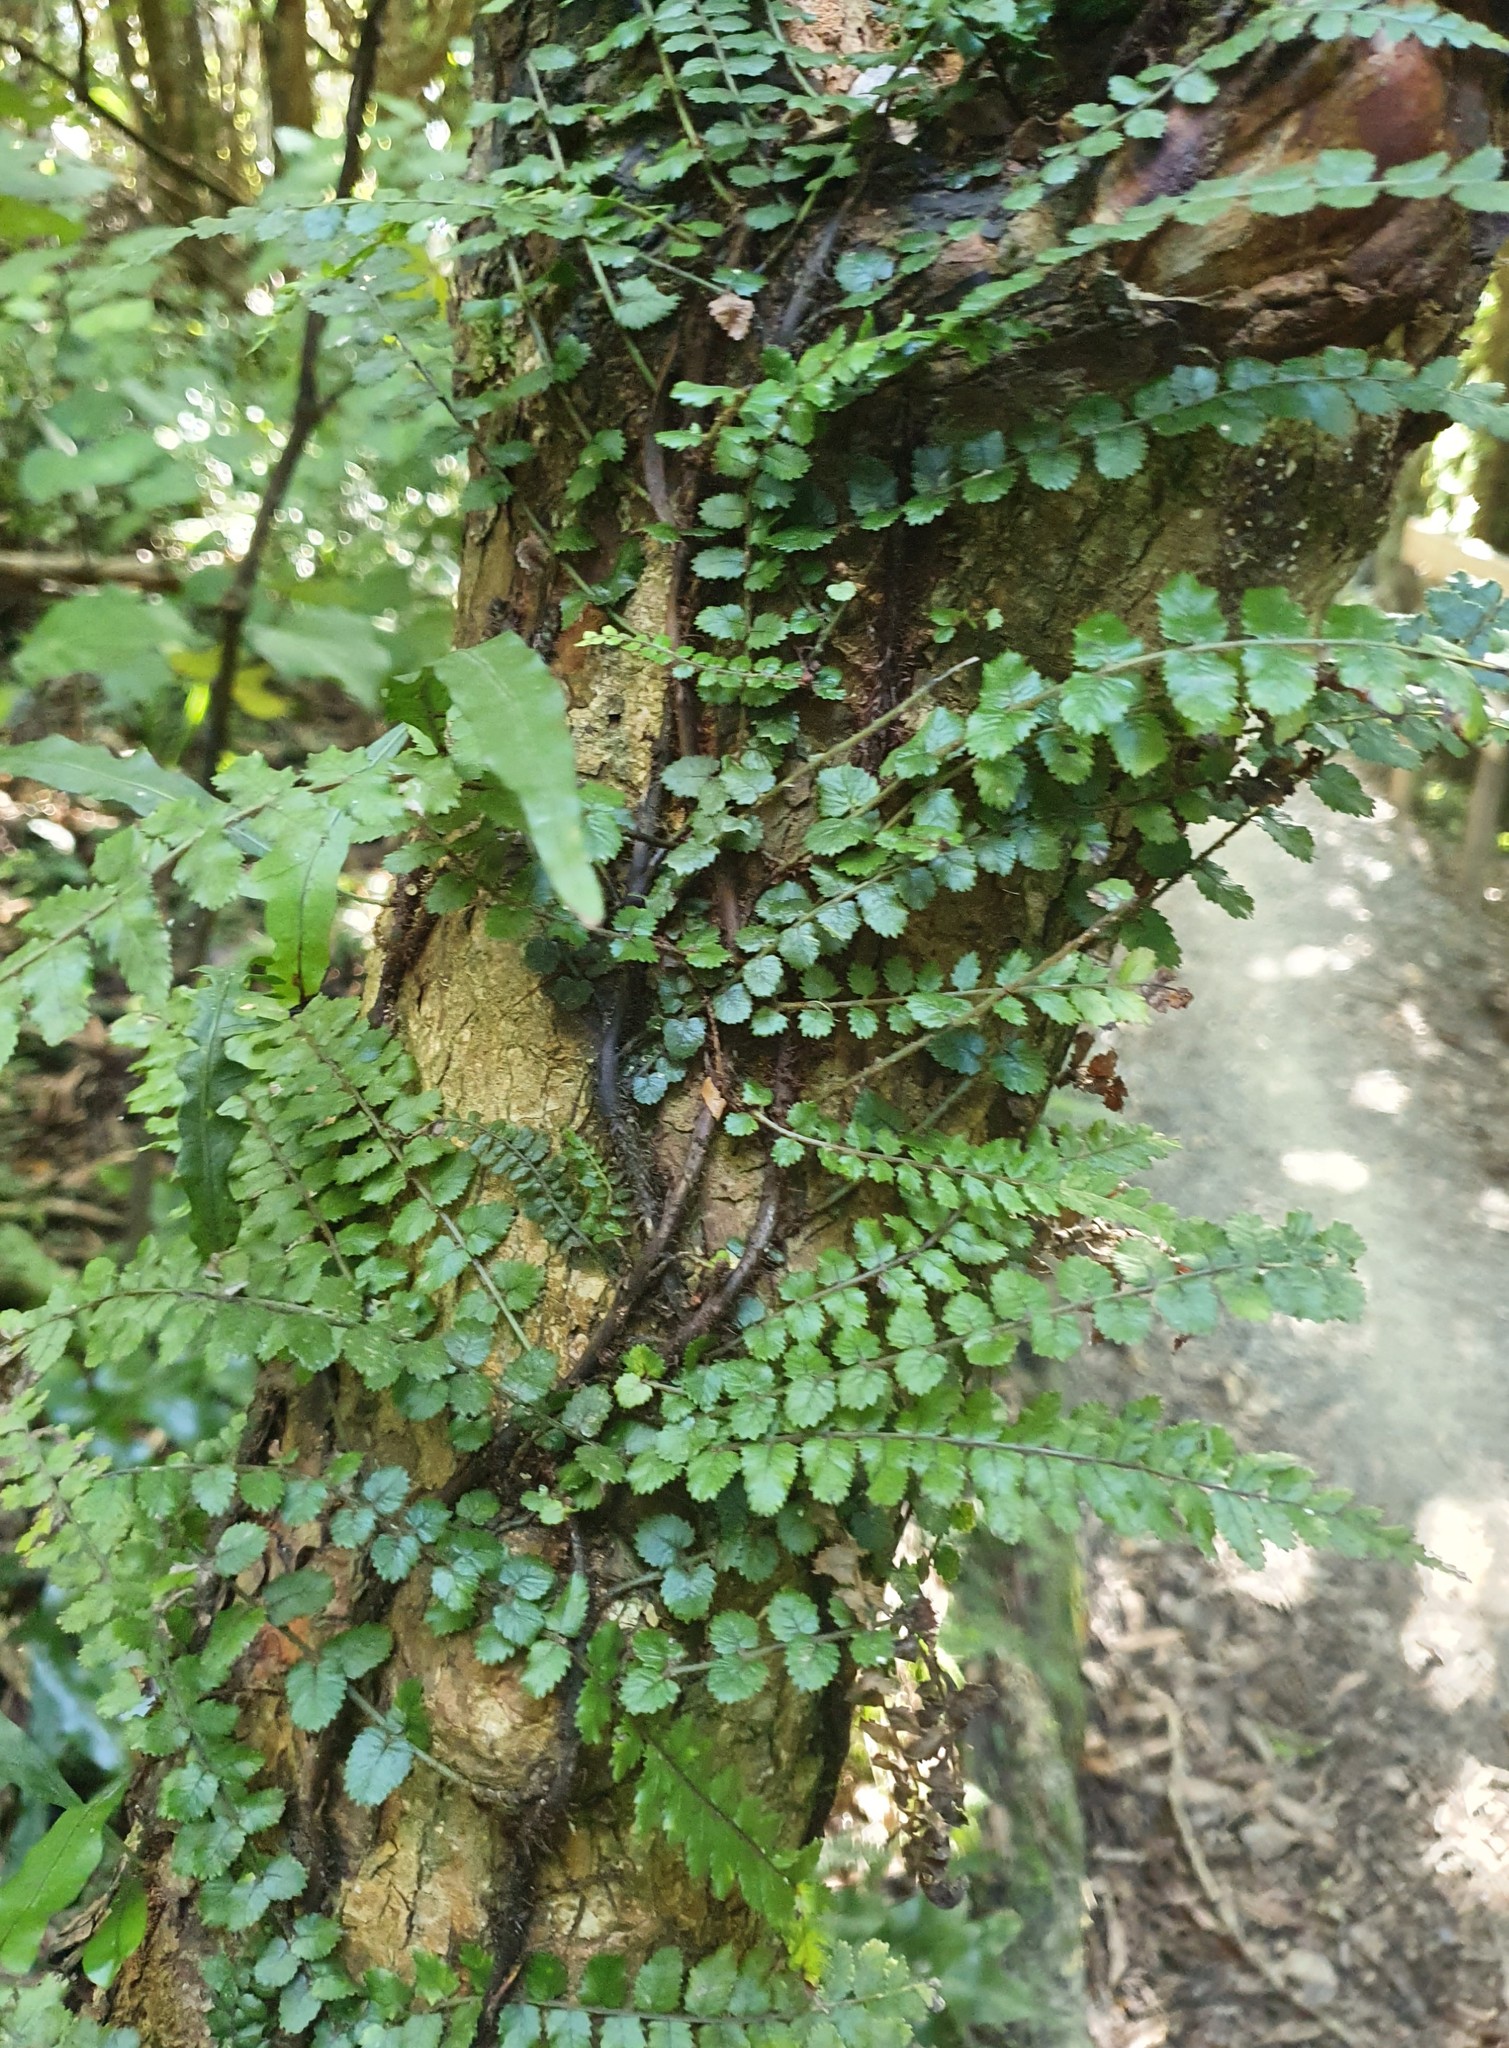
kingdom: Plantae
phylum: Tracheophyta
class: Polypodiopsida
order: Polypodiales
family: Blechnaceae
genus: Icarus
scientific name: Icarus filiformis
